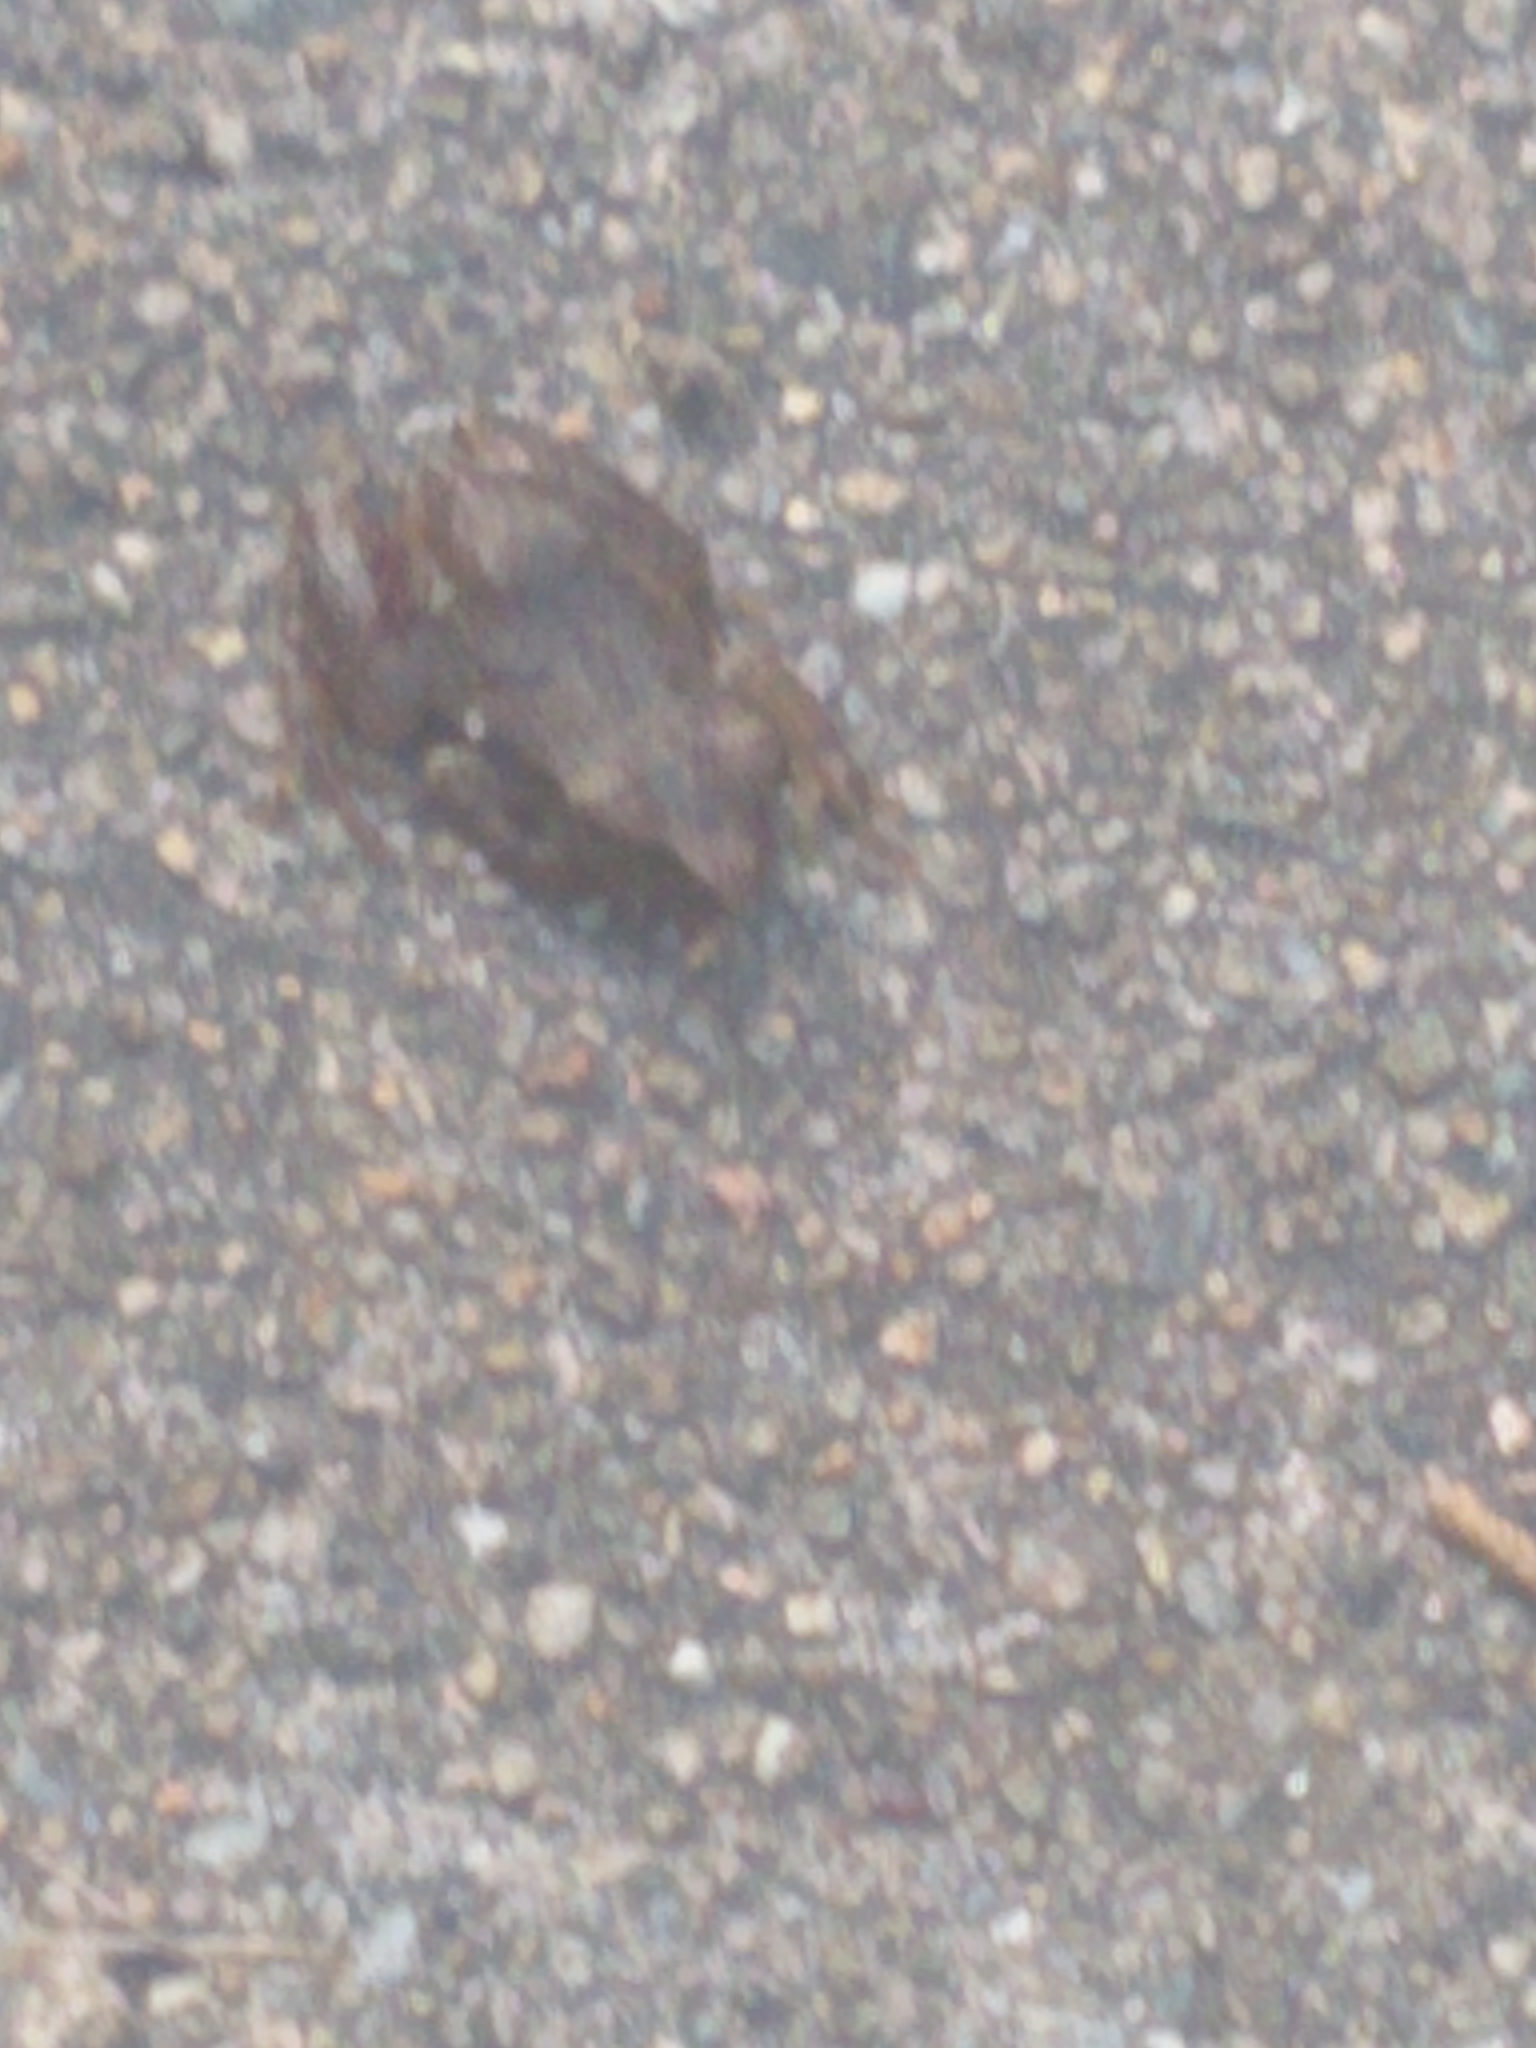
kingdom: Animalia
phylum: Chordata
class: Amphibia
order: Anura
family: Hylidae
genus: Pseudacris
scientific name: Pseudacris crucifer
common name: Spring peeper
